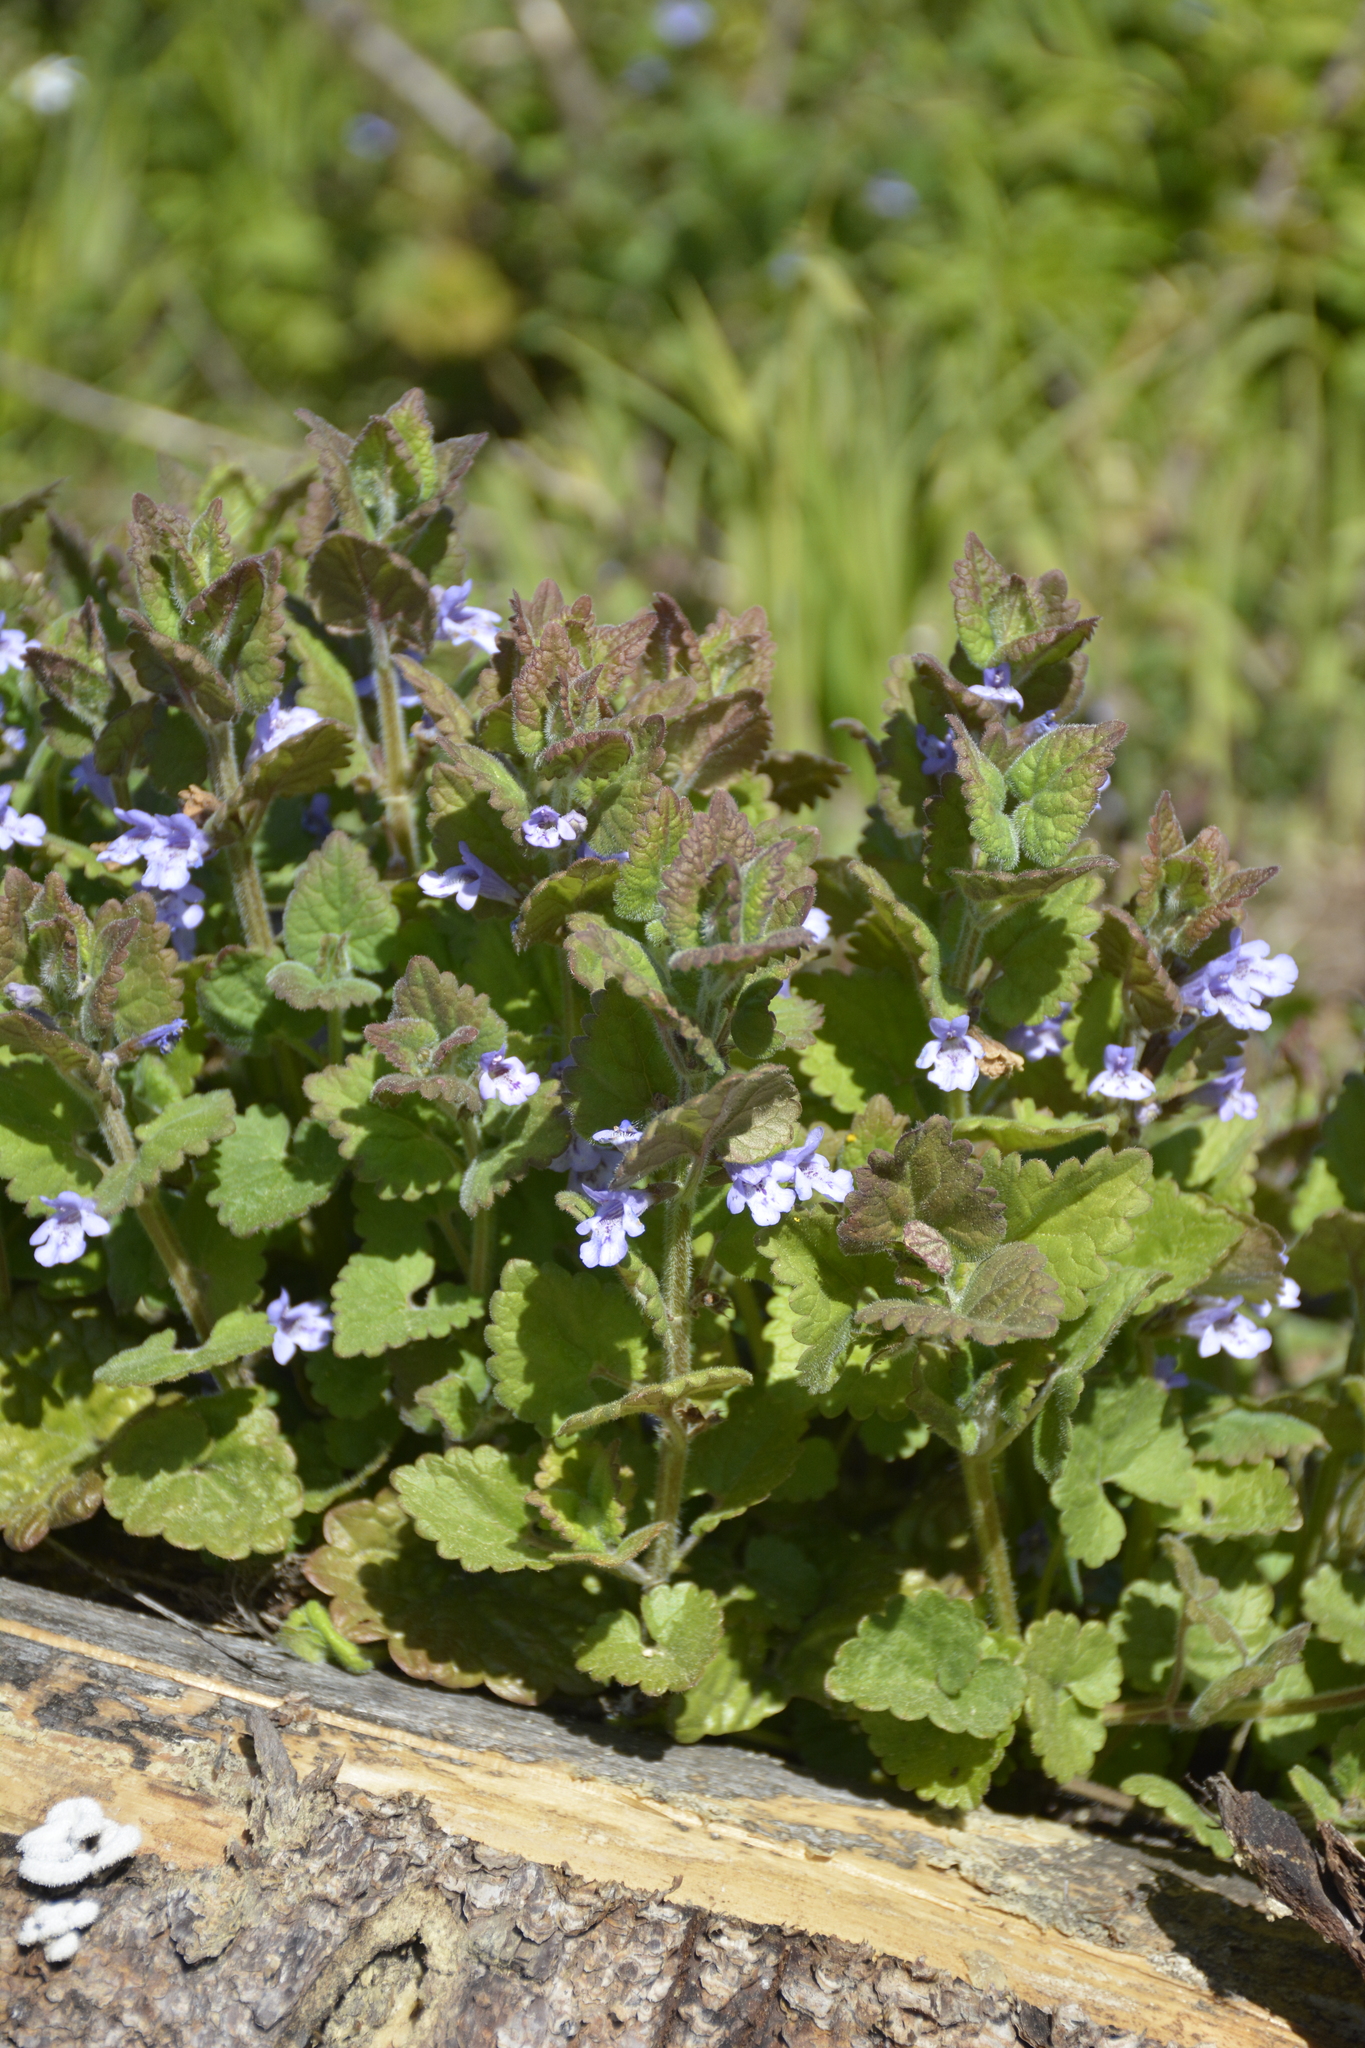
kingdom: Plantae
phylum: Tracheophyta
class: Magnoliopsida
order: Lamiales
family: Lamiaceae
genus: Glechoma
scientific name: Glechoma hederacea
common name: Ground ivy
